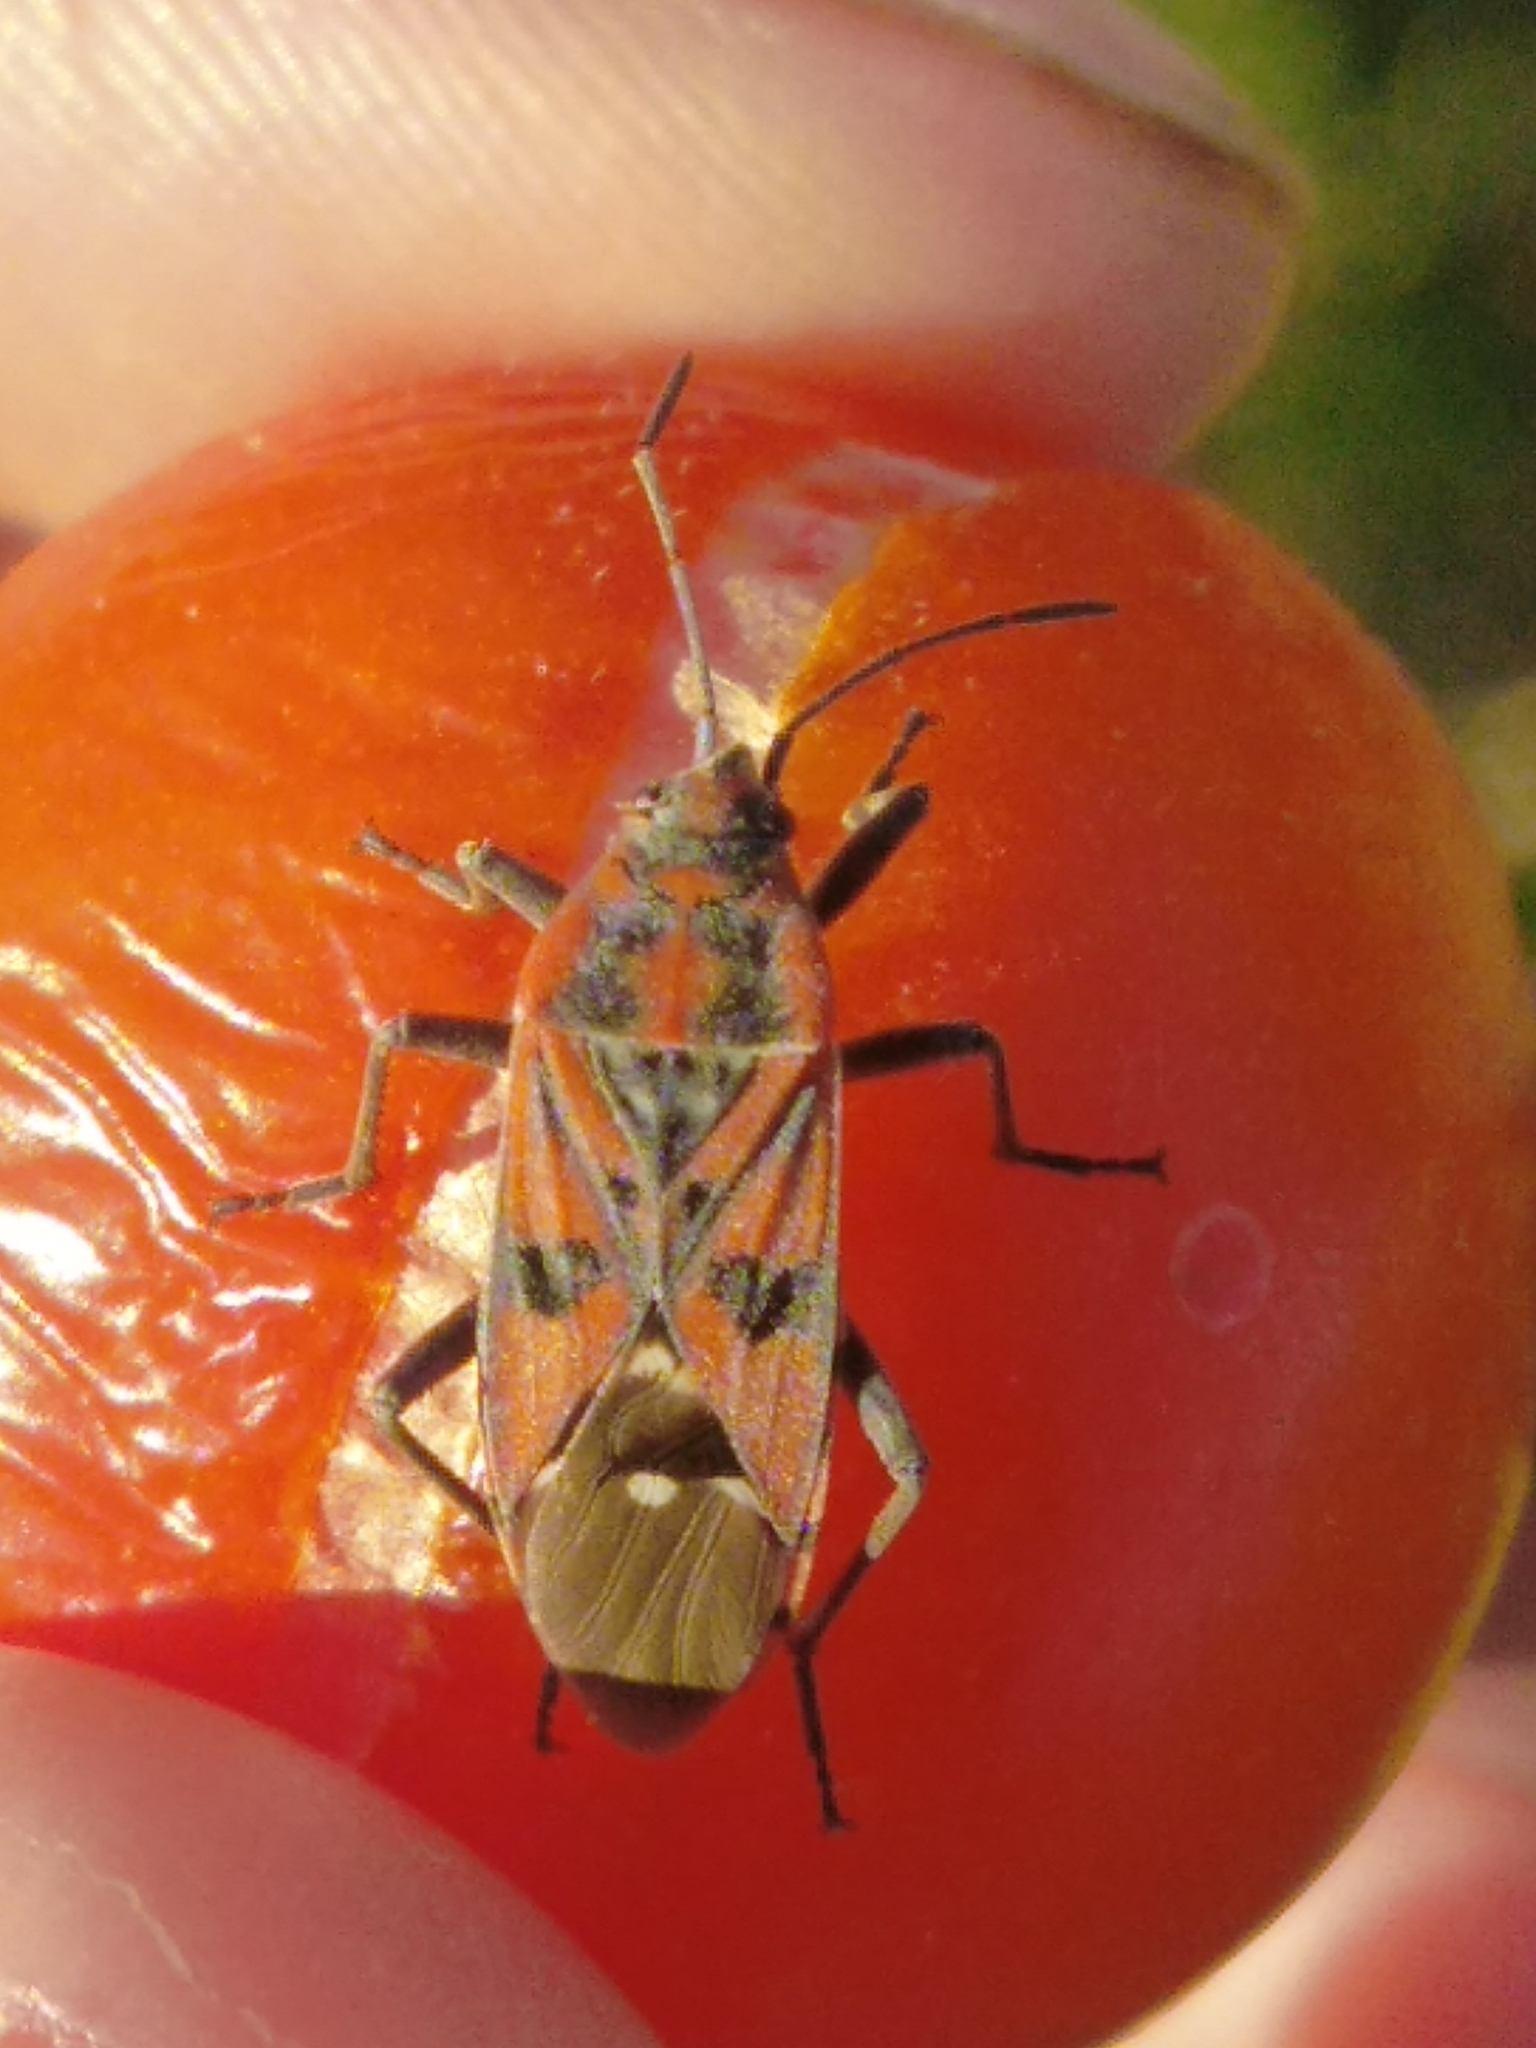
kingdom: Animalia
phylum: Arthropoda
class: Insecta
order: Hemiptera
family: Lygaeidae
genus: Spilostethus
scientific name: Spilostethus pandurus
